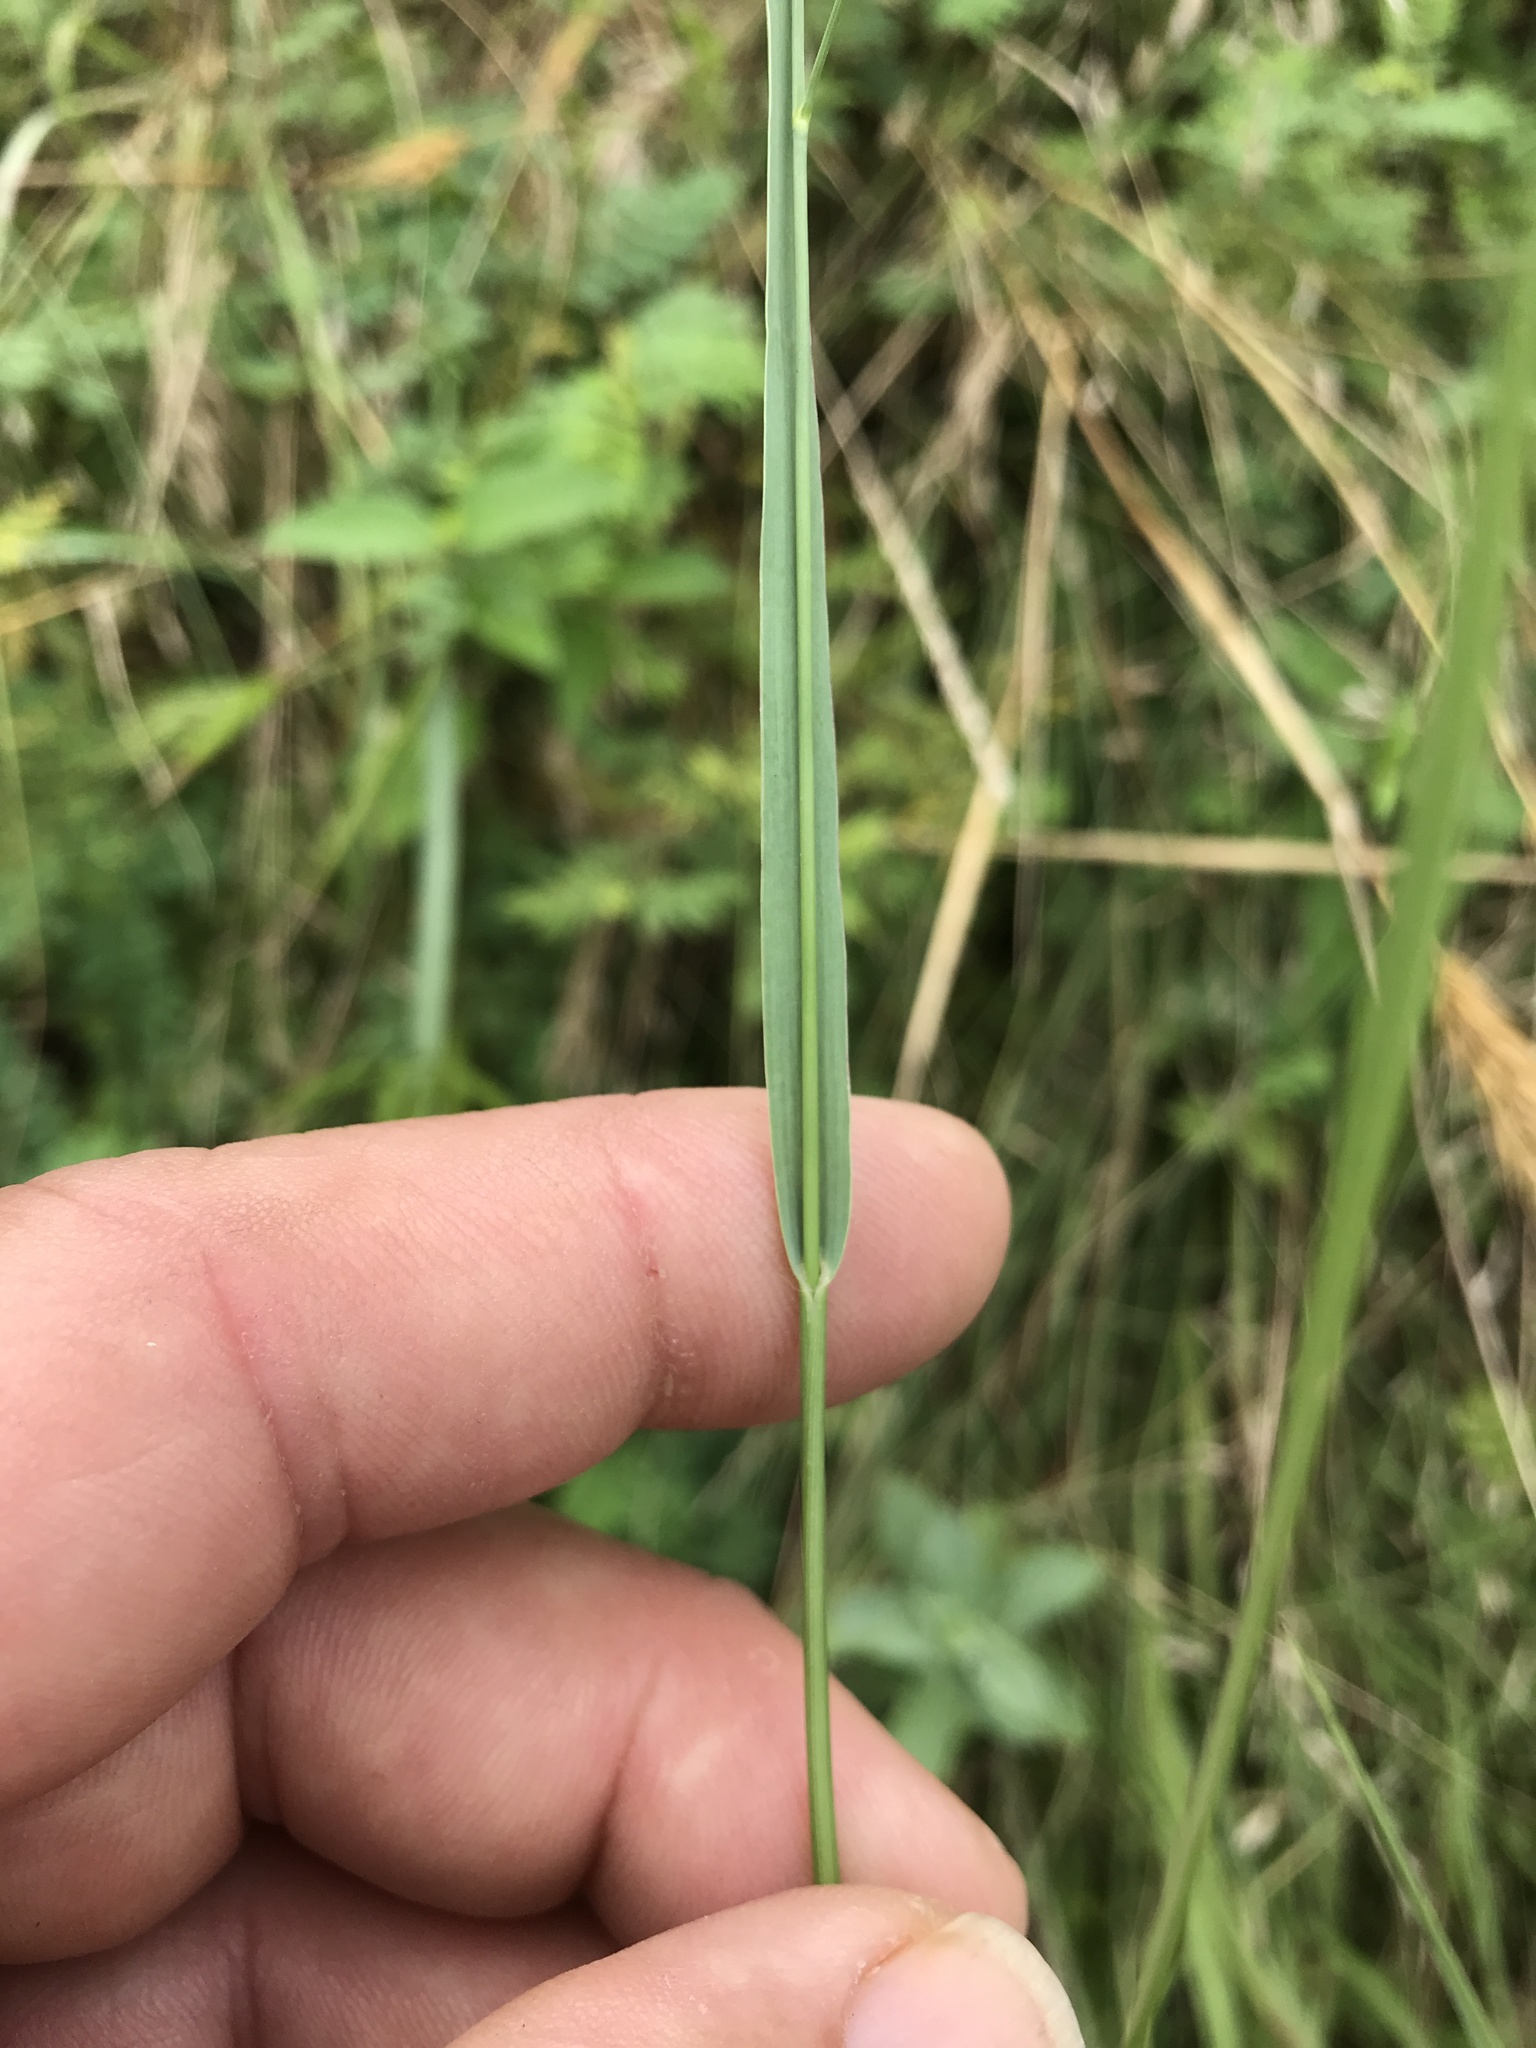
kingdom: Plantae
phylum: Tracheophyta
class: Liliopsida
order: Poales
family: Poaceae
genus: Panicum
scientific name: Panicum coloratum
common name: Kleingrass
